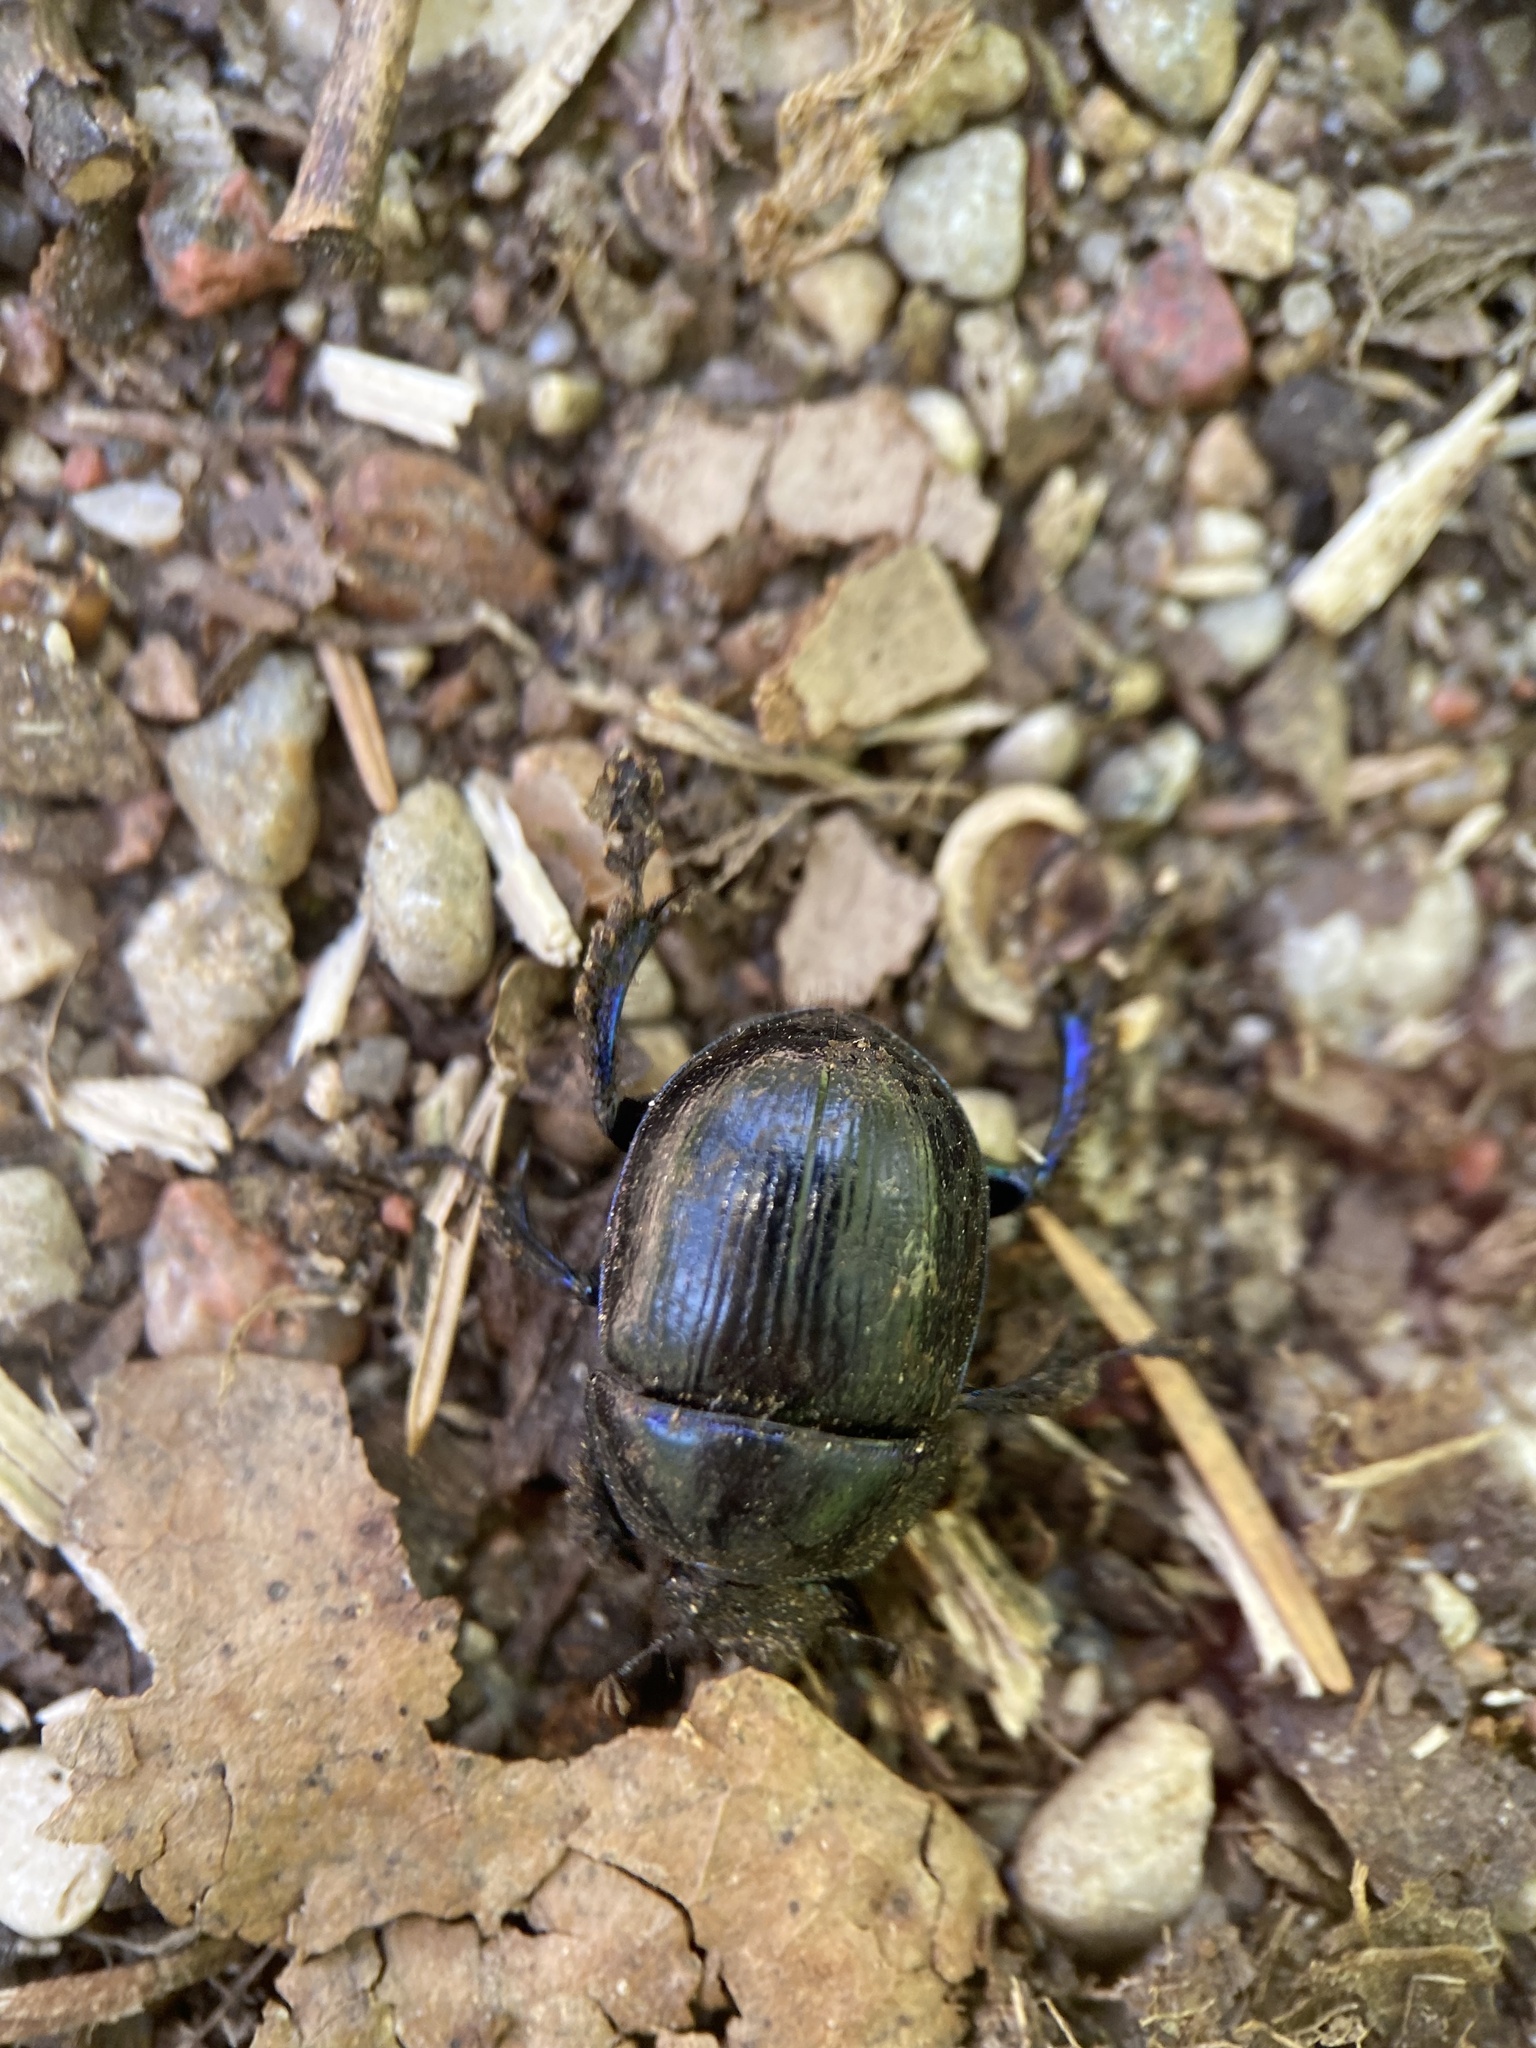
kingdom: Animalia
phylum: Arthropoda
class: Insecta
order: Coleoptera
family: Geotrupidae
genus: Anoplotrupes
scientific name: Anoplotrupes stercorosus
